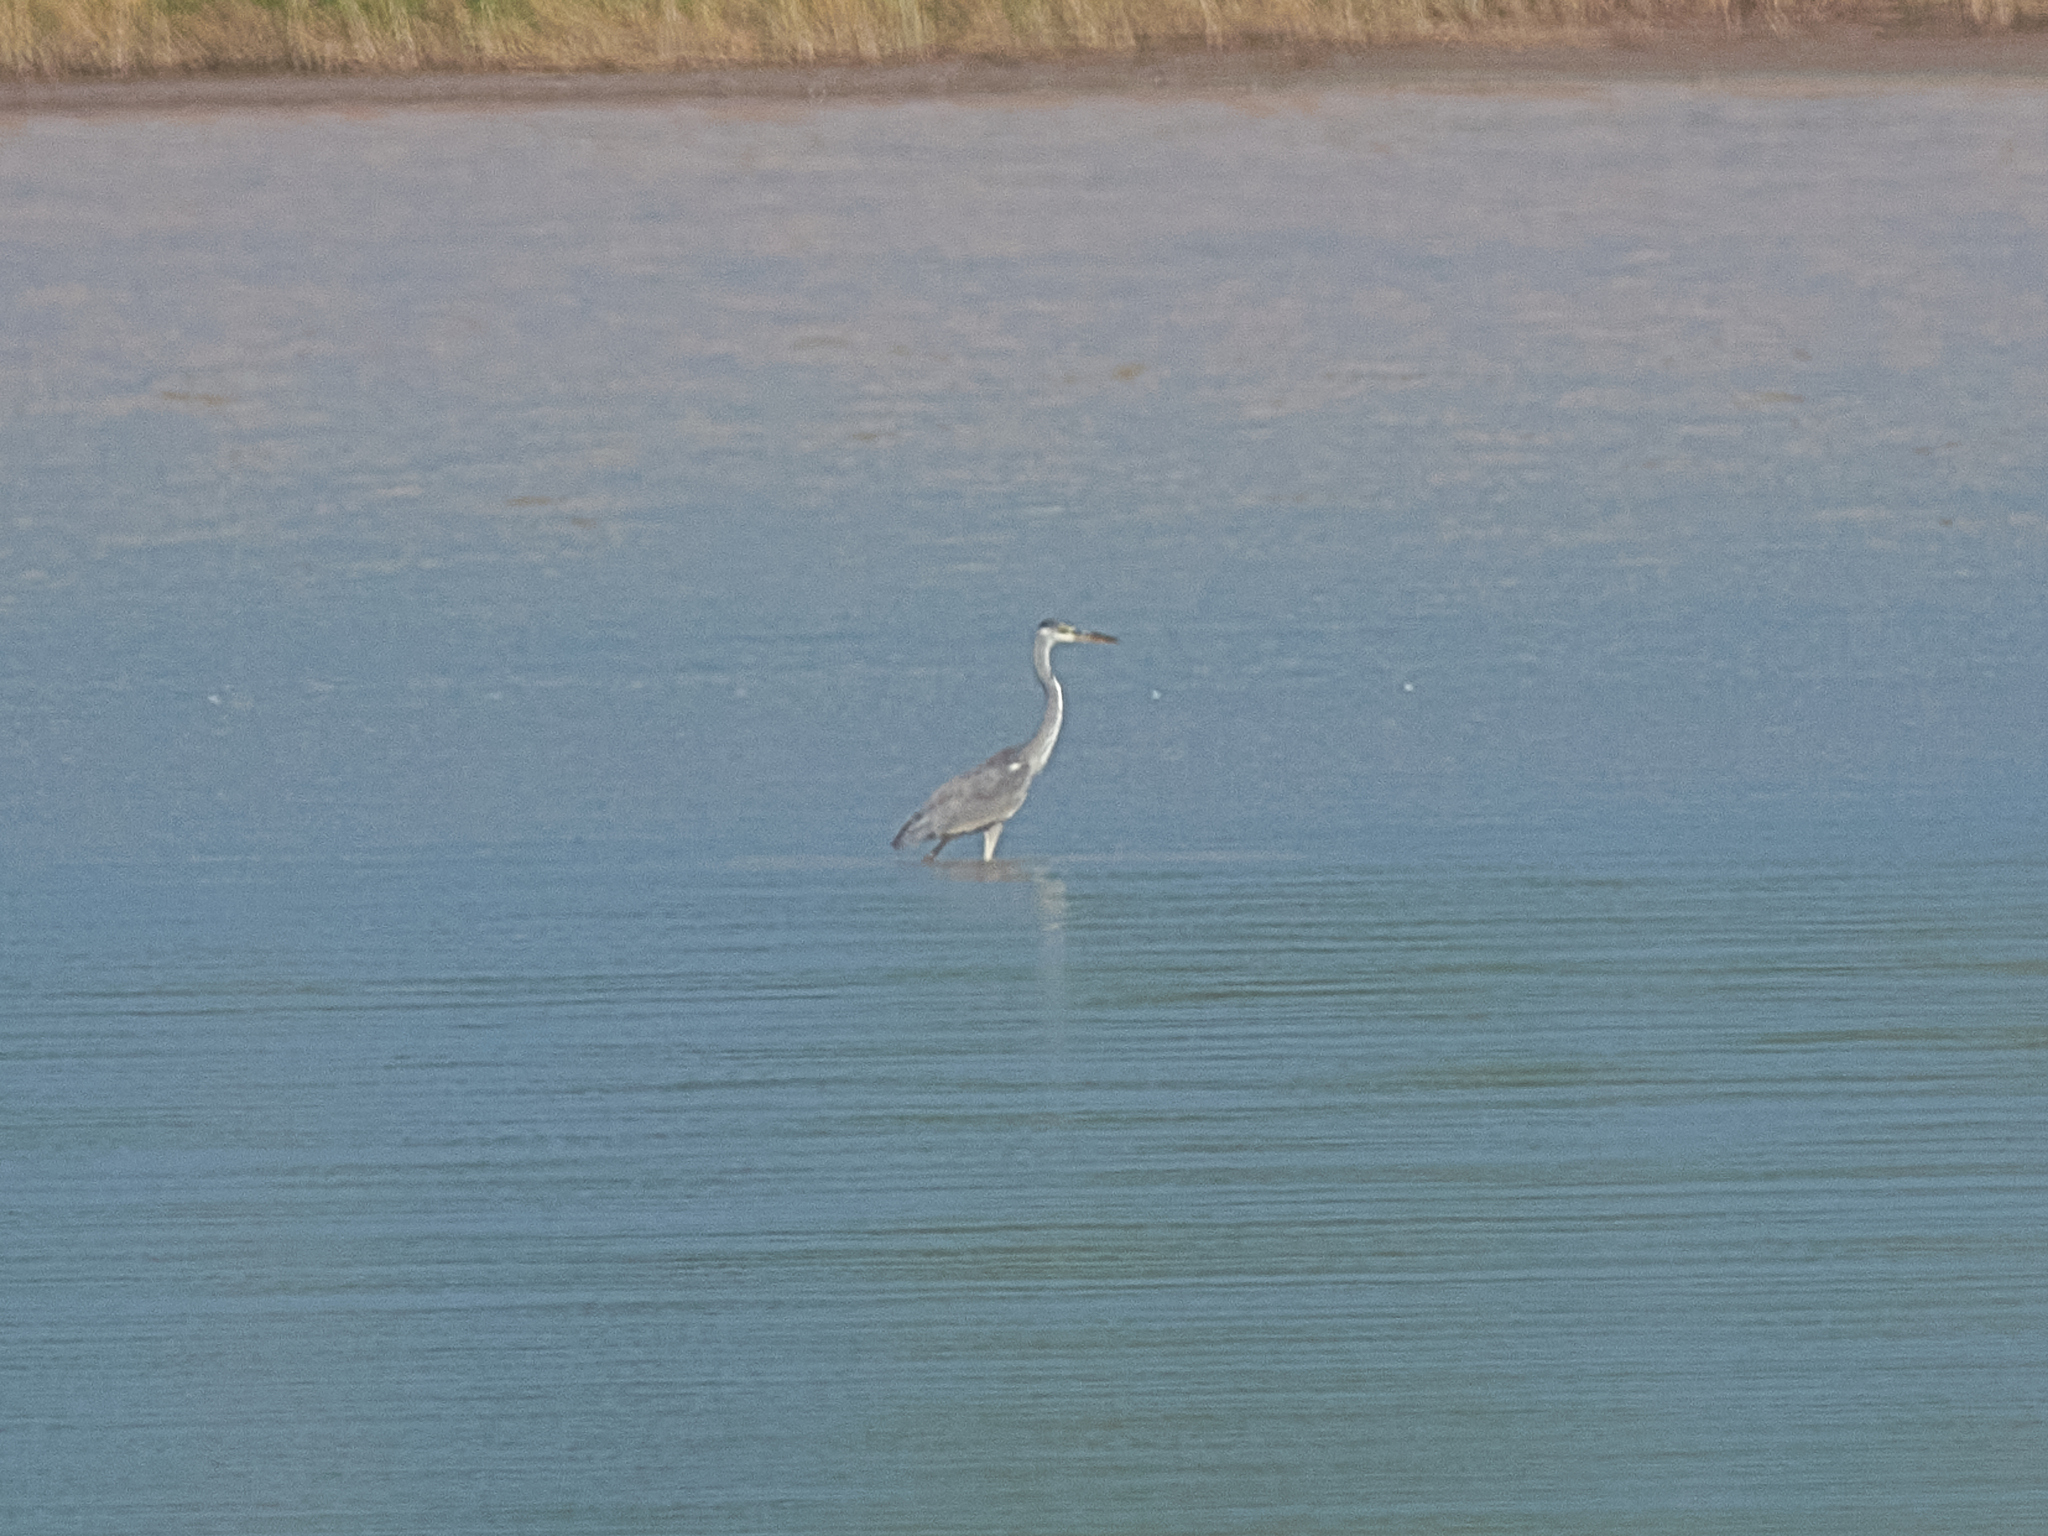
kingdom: Animalia
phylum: Chordata
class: Aves
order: Pelecaniformes
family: Ardeidae
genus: Ardea
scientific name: Ardea cinerea
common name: Grey heron
